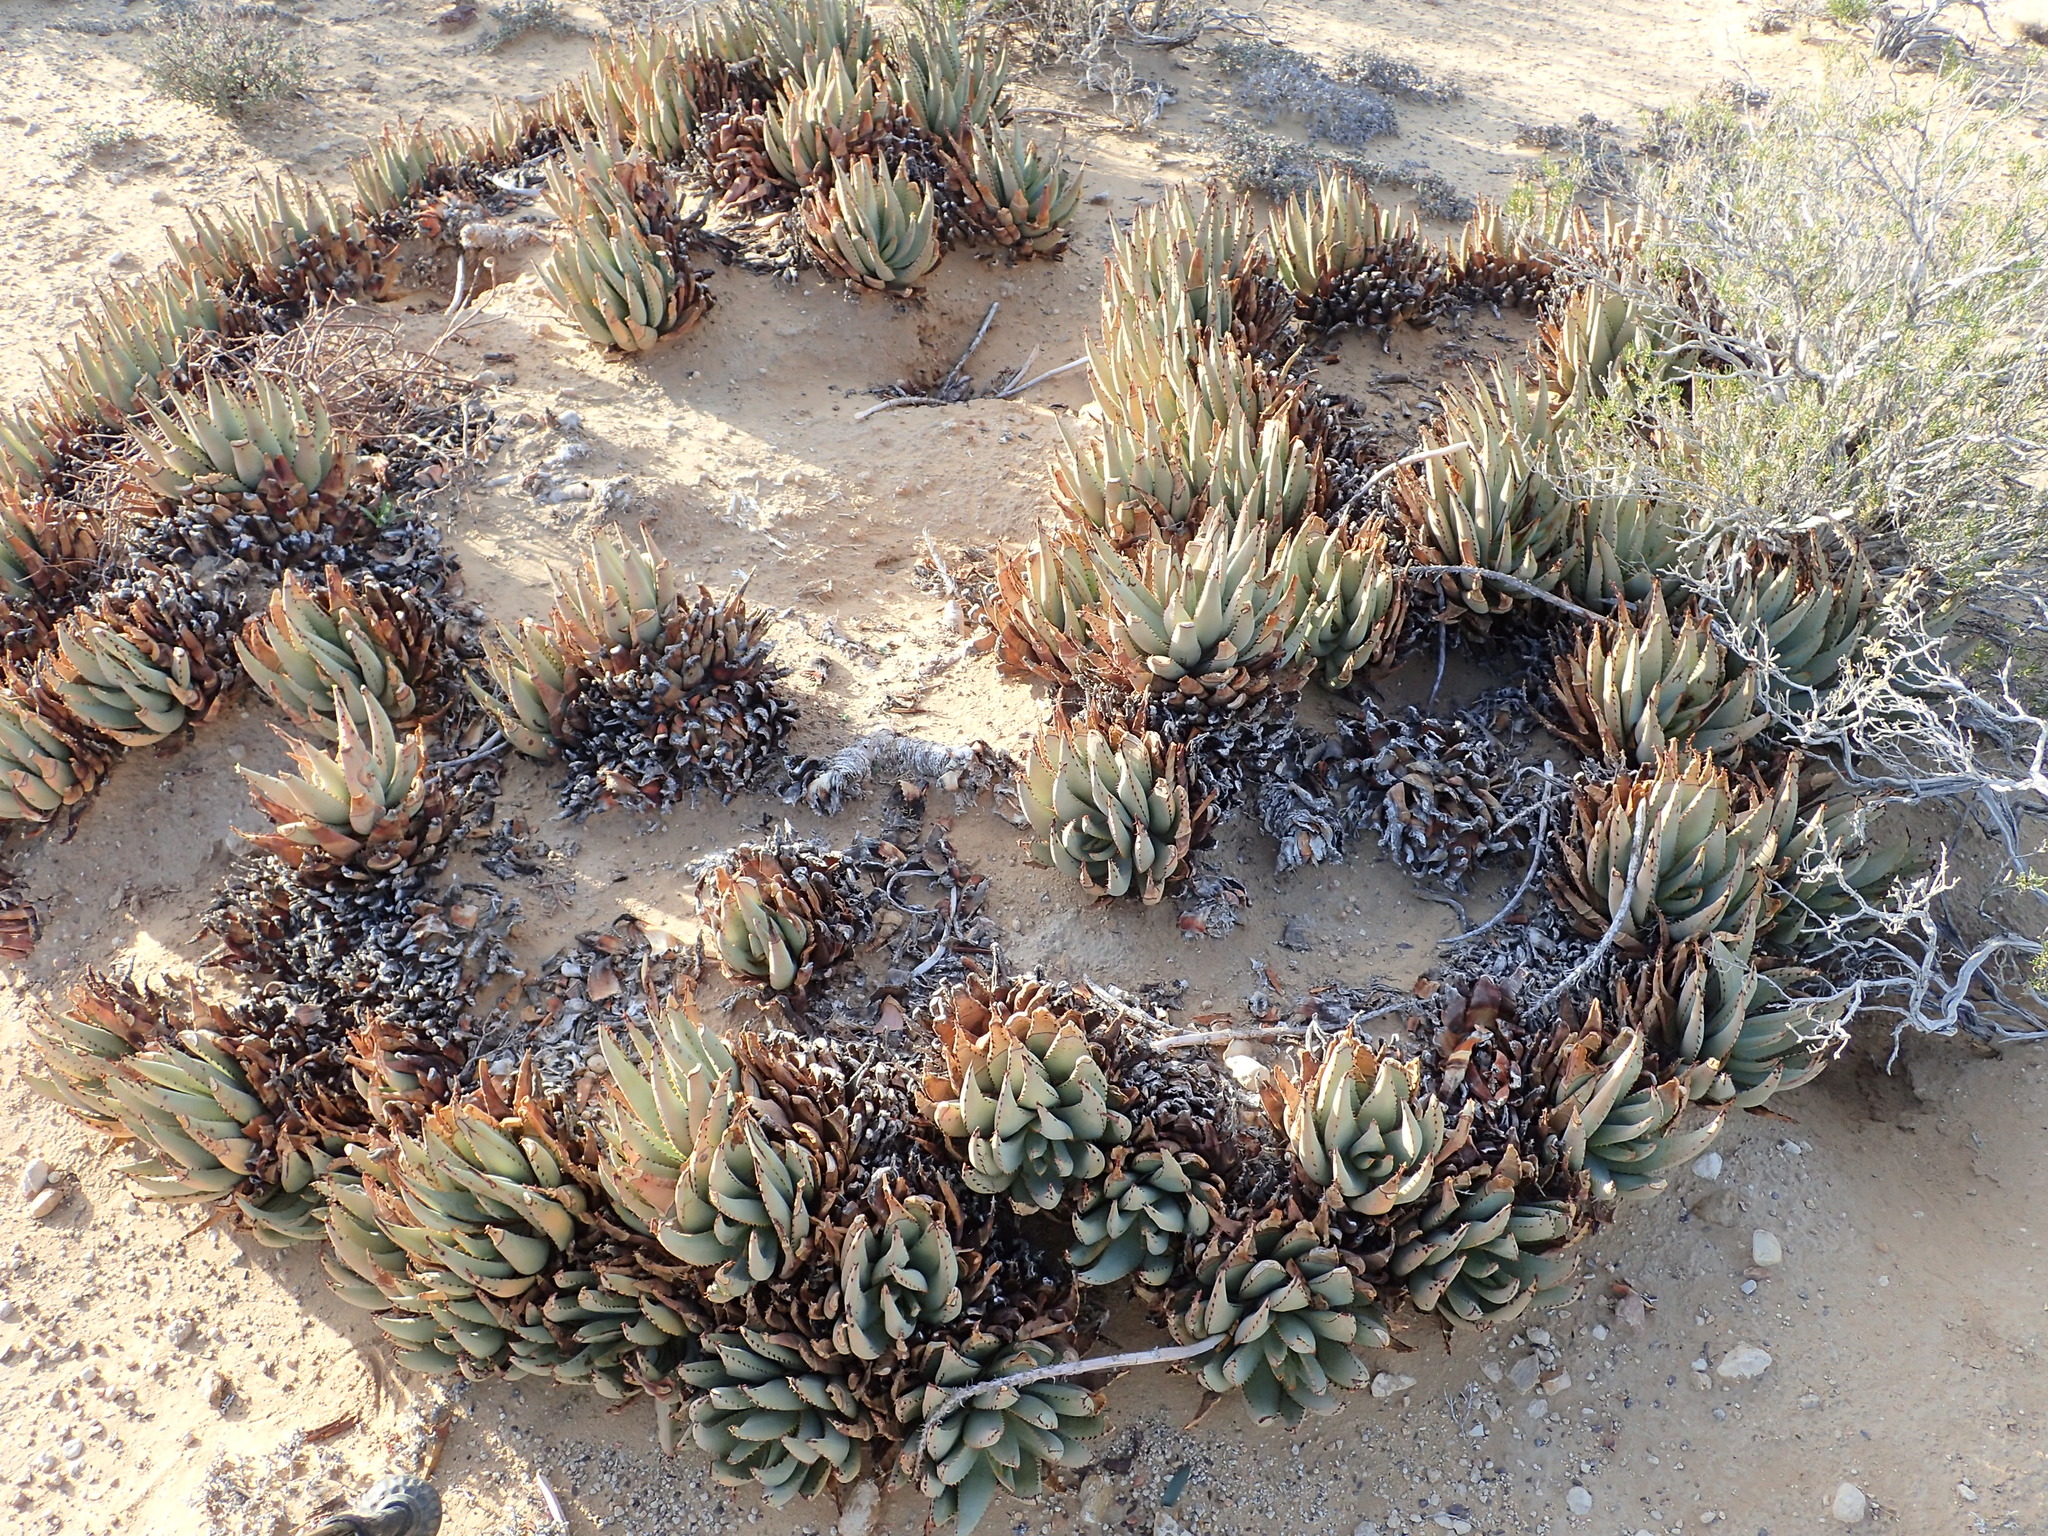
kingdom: Plantae
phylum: Tracheophyta
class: Liliopsida
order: Asparagales
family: Asphodelaceae
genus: Aloe
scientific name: Aloe claviflora
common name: Cannon aloe
